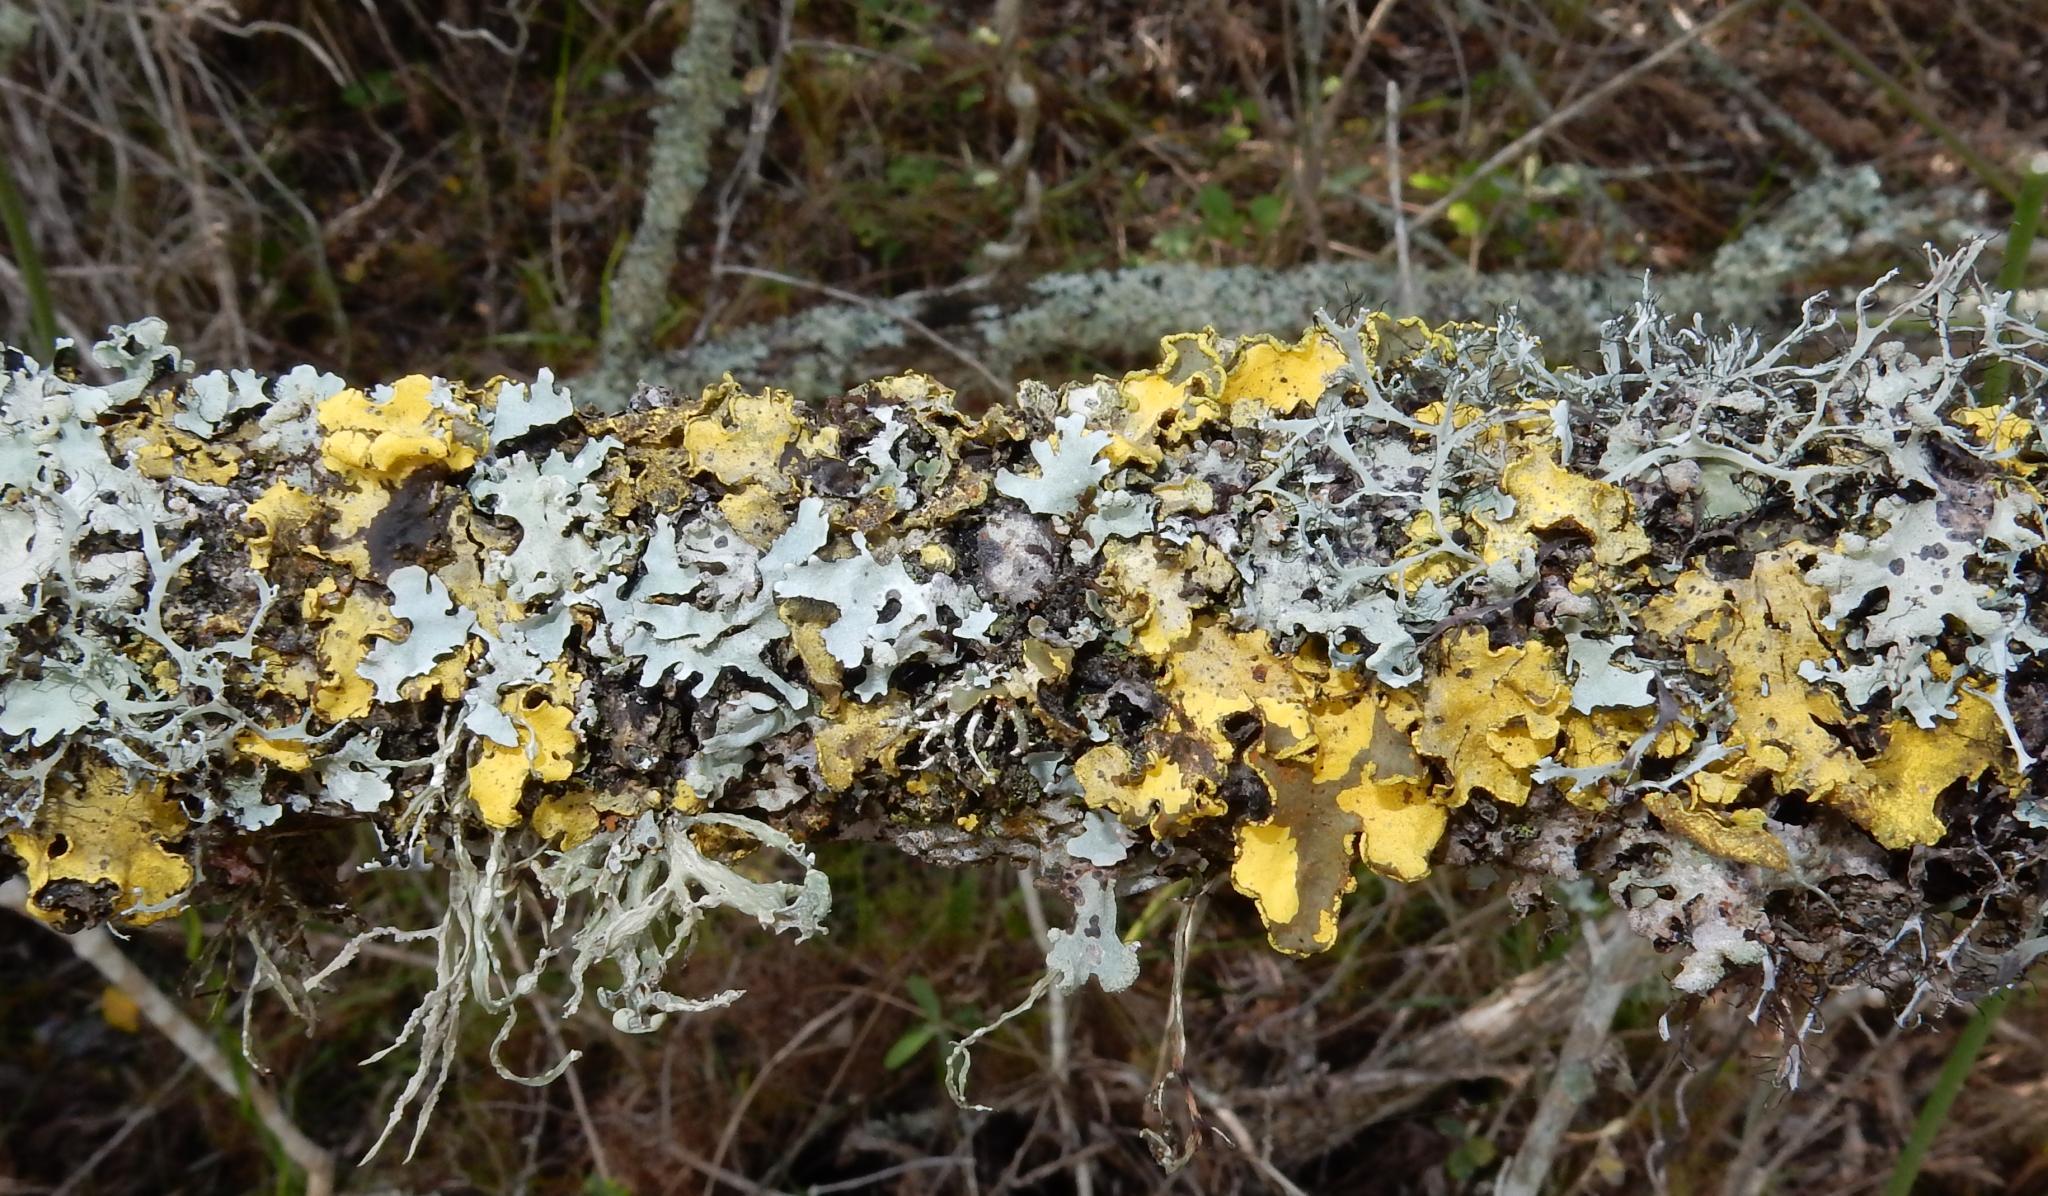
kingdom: Fungi
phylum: Ascomycota
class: Lecanoromycetes
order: Peltigerales
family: Lobariaceae
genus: Pseudocyphellaria
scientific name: Pseudocyphellaria aurata
